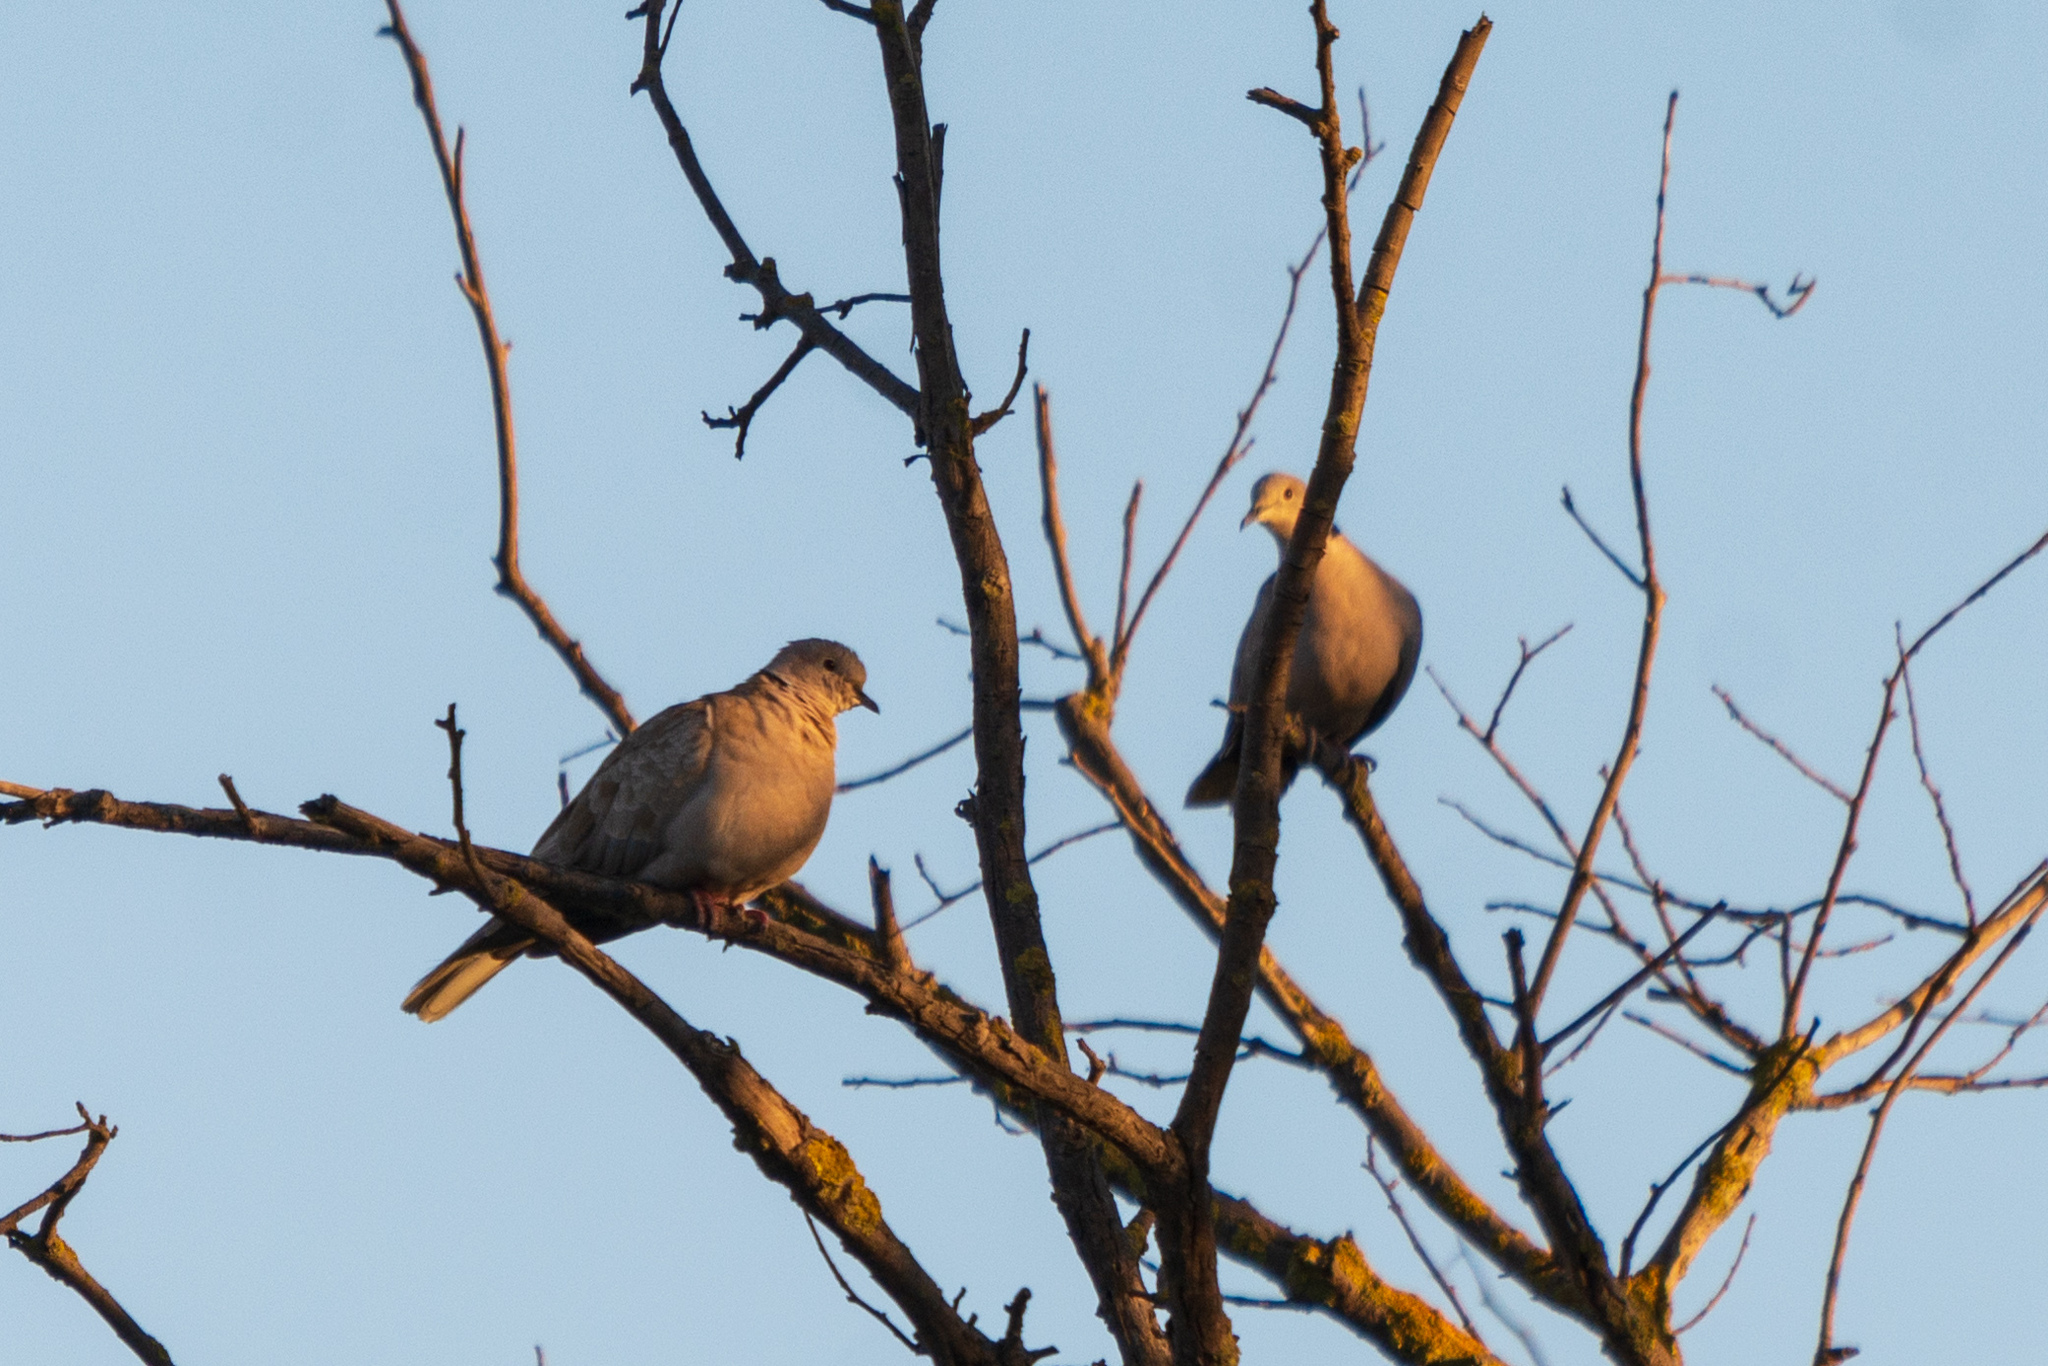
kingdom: Animalia
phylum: Chordata
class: Aves
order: Columbiformes
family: Columbidae
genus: Streptopelia
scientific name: Streptopelia decaocto
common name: Eurasian collared dove
